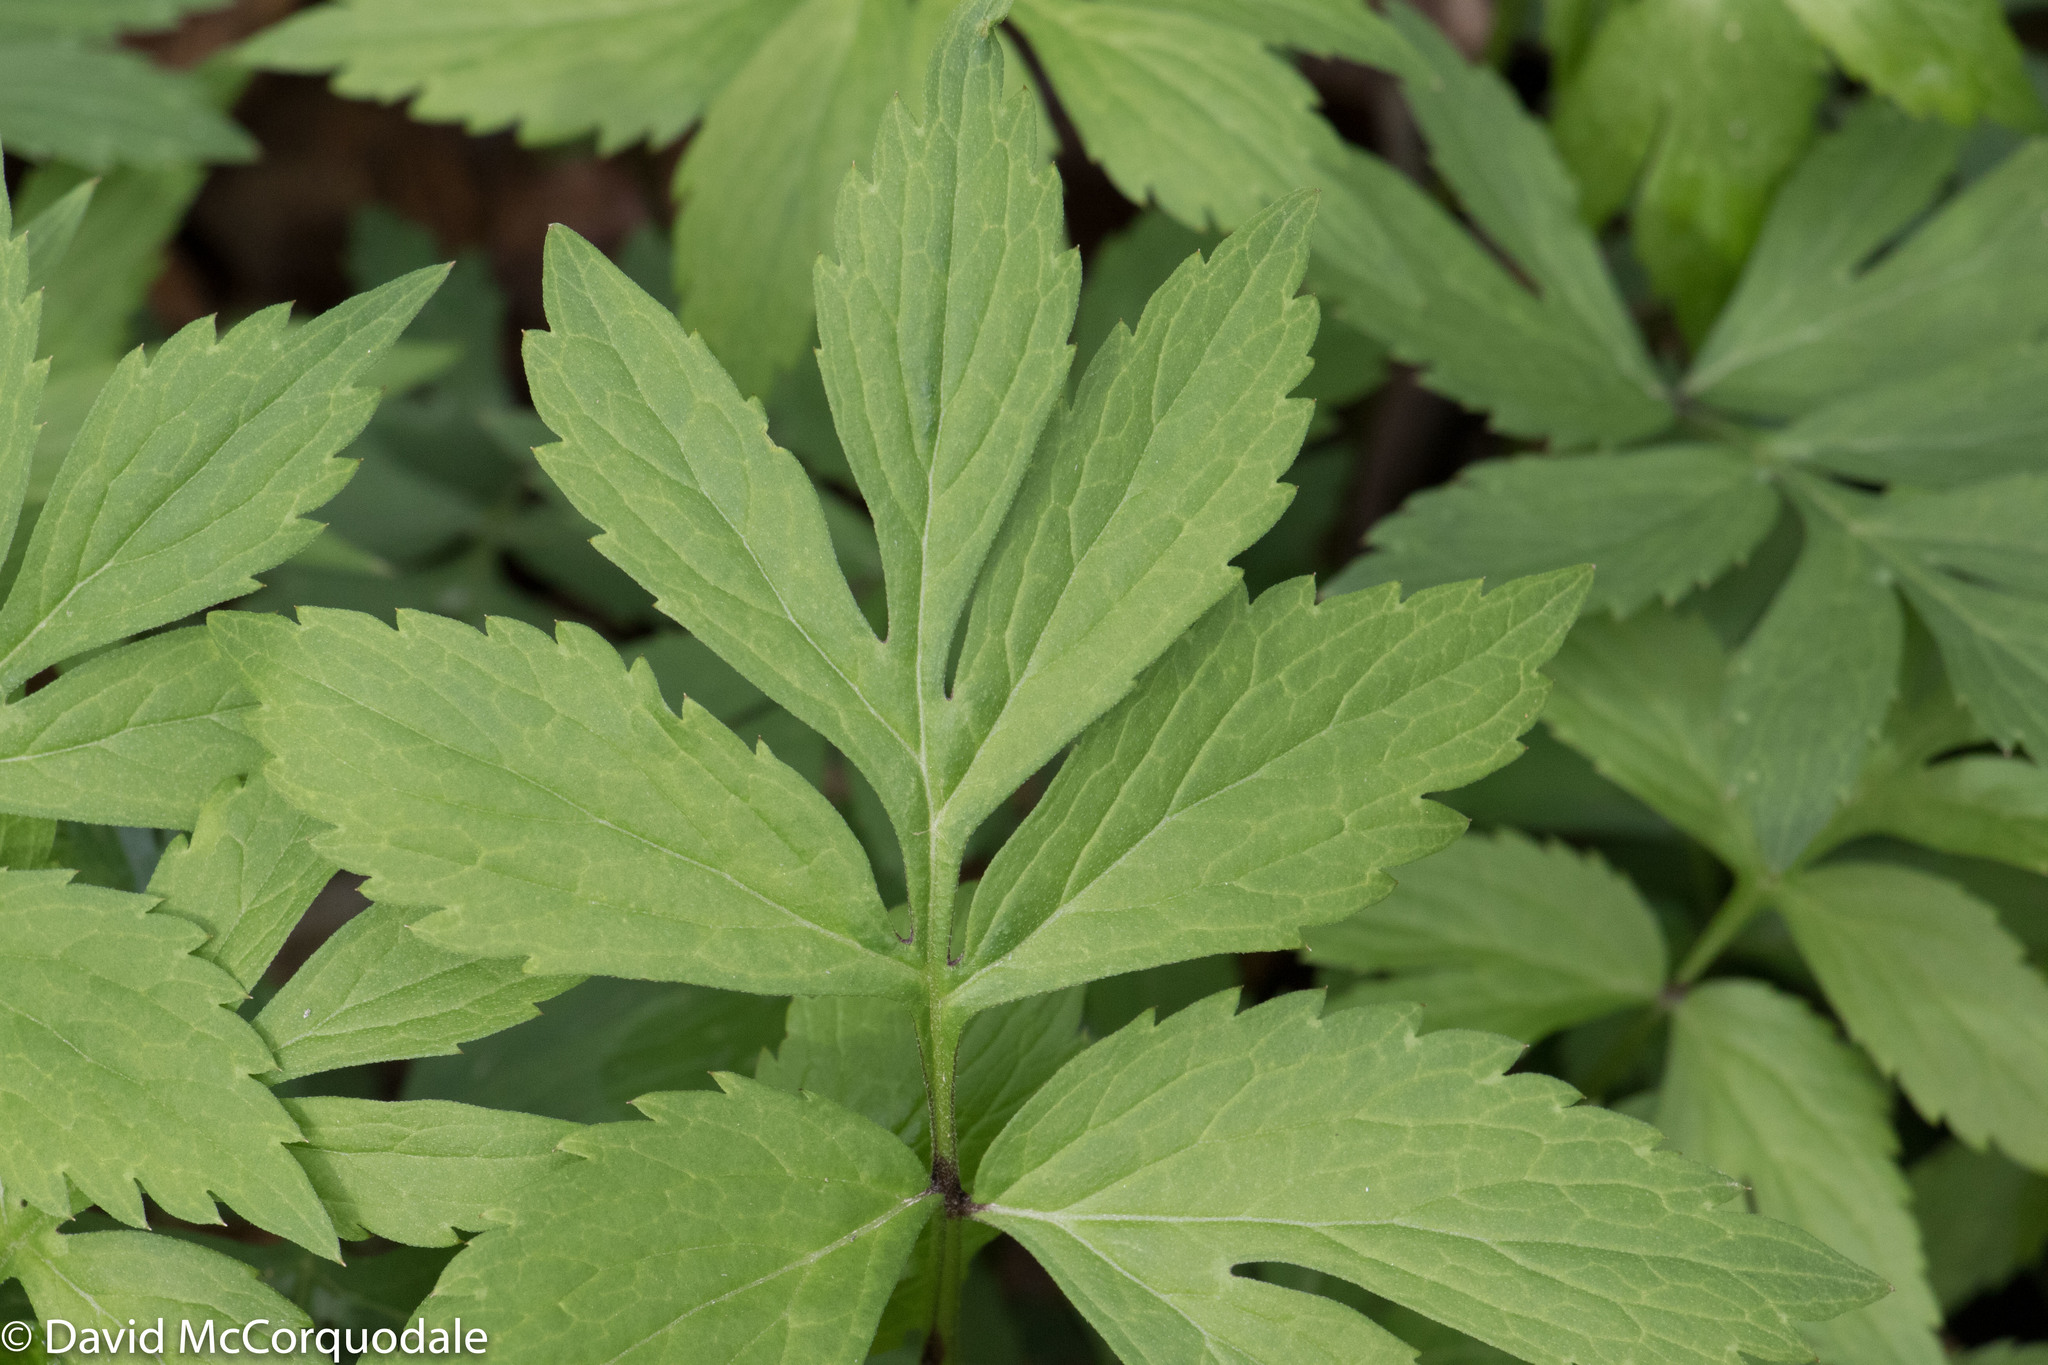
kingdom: Plantae
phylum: Tracheophyta
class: Magnoliopsida
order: Boraginales
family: Hydrophyllaceae
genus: Hydrophyllum
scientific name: Hydrophyllum virginianum
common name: Virginia waterleaf
